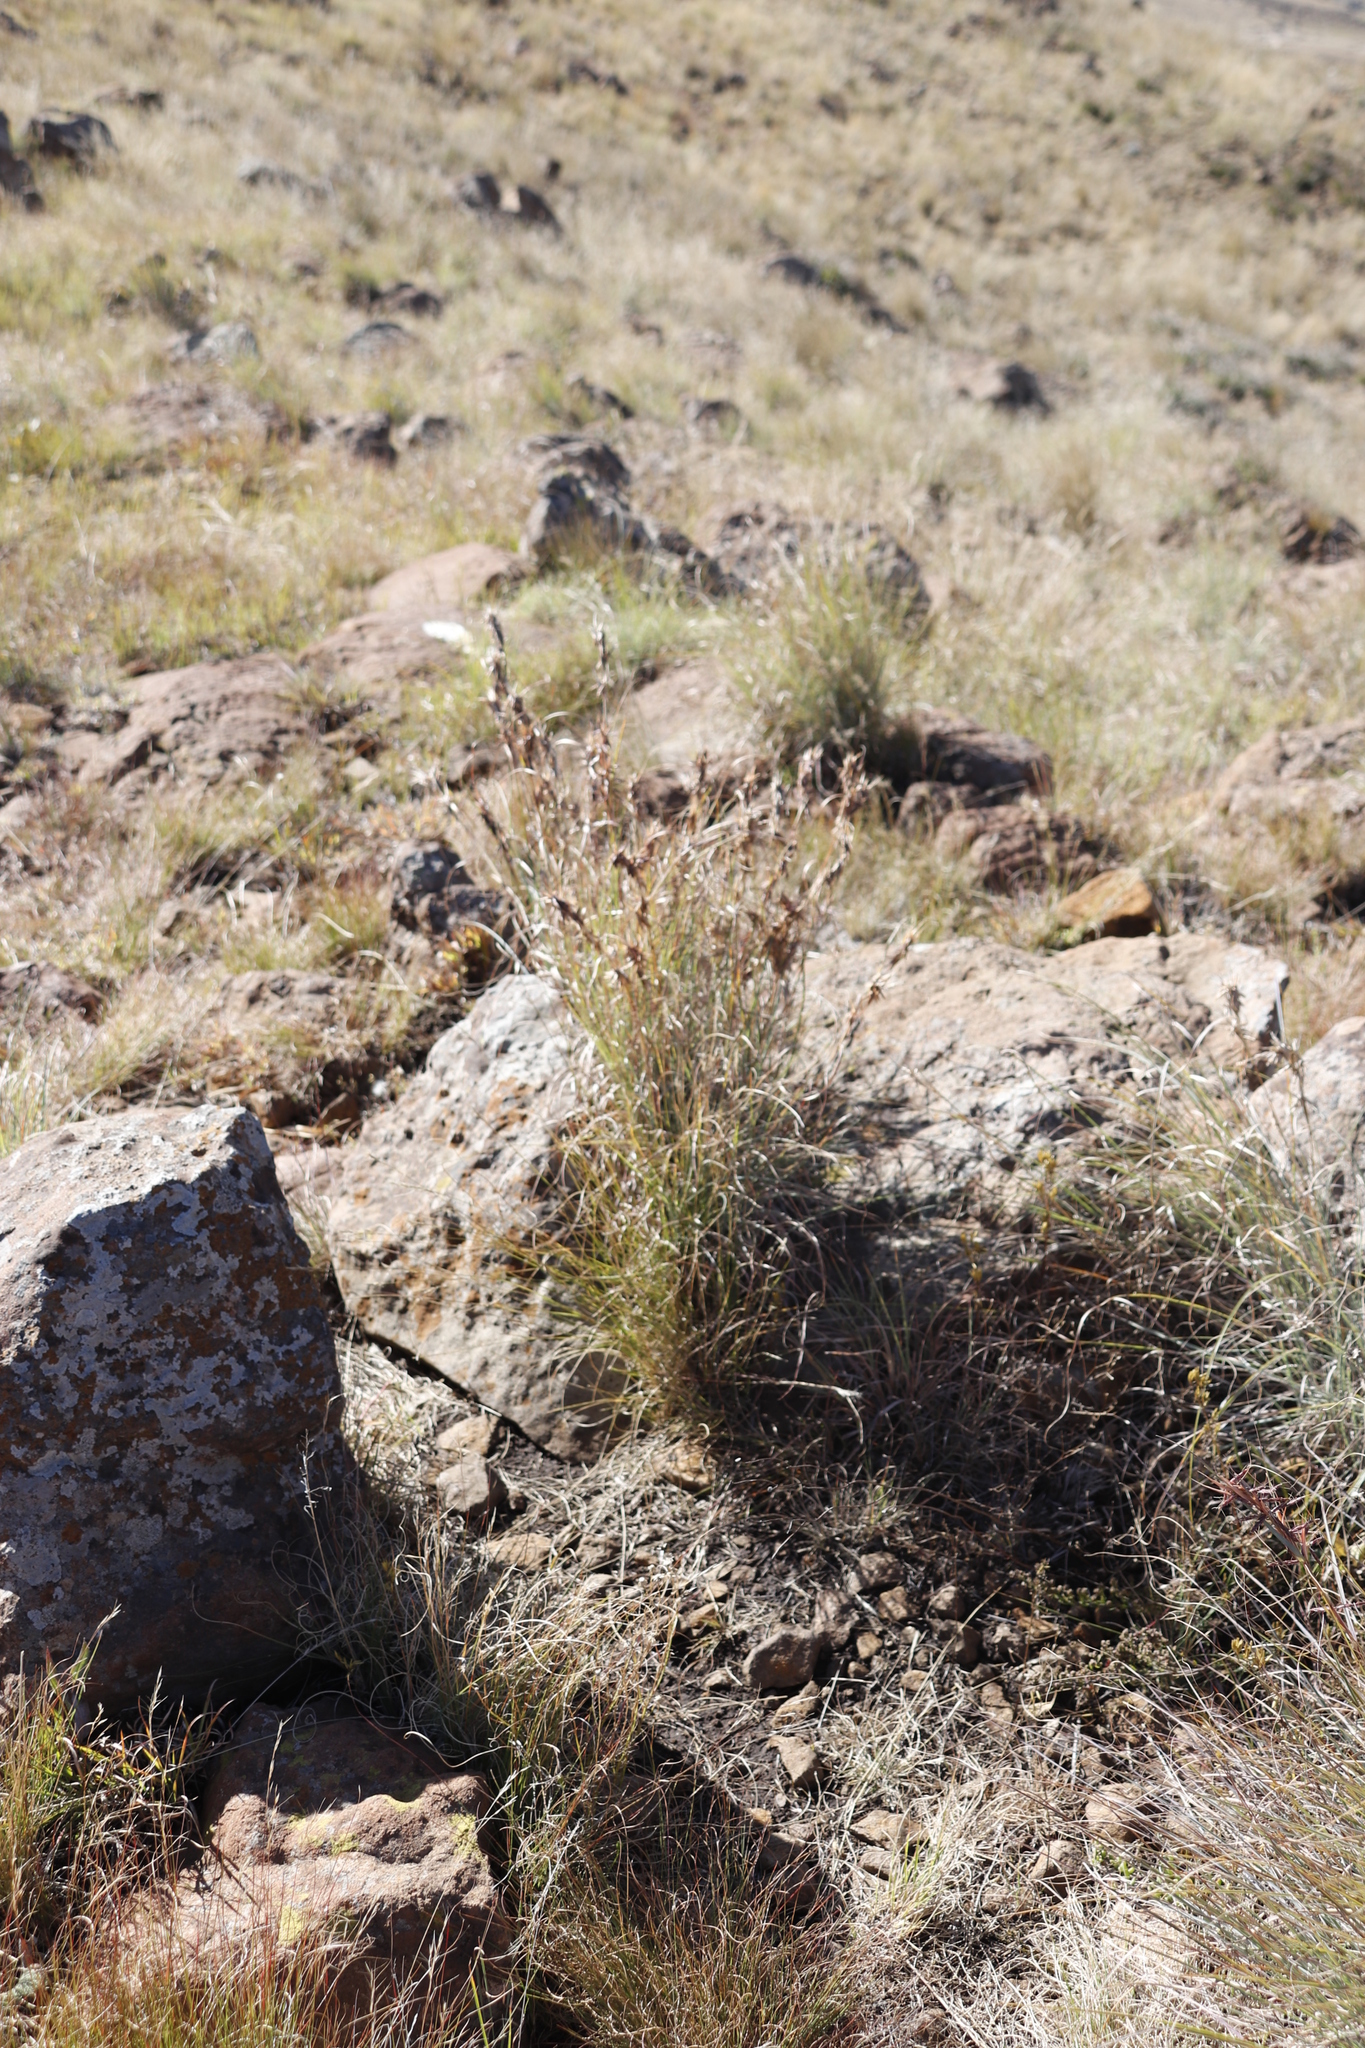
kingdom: Plantae
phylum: Tracheophyta
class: Liliopsida
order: Poales
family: Poaceae
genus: Cymbopogon
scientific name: Cymbopogon pospischilii
